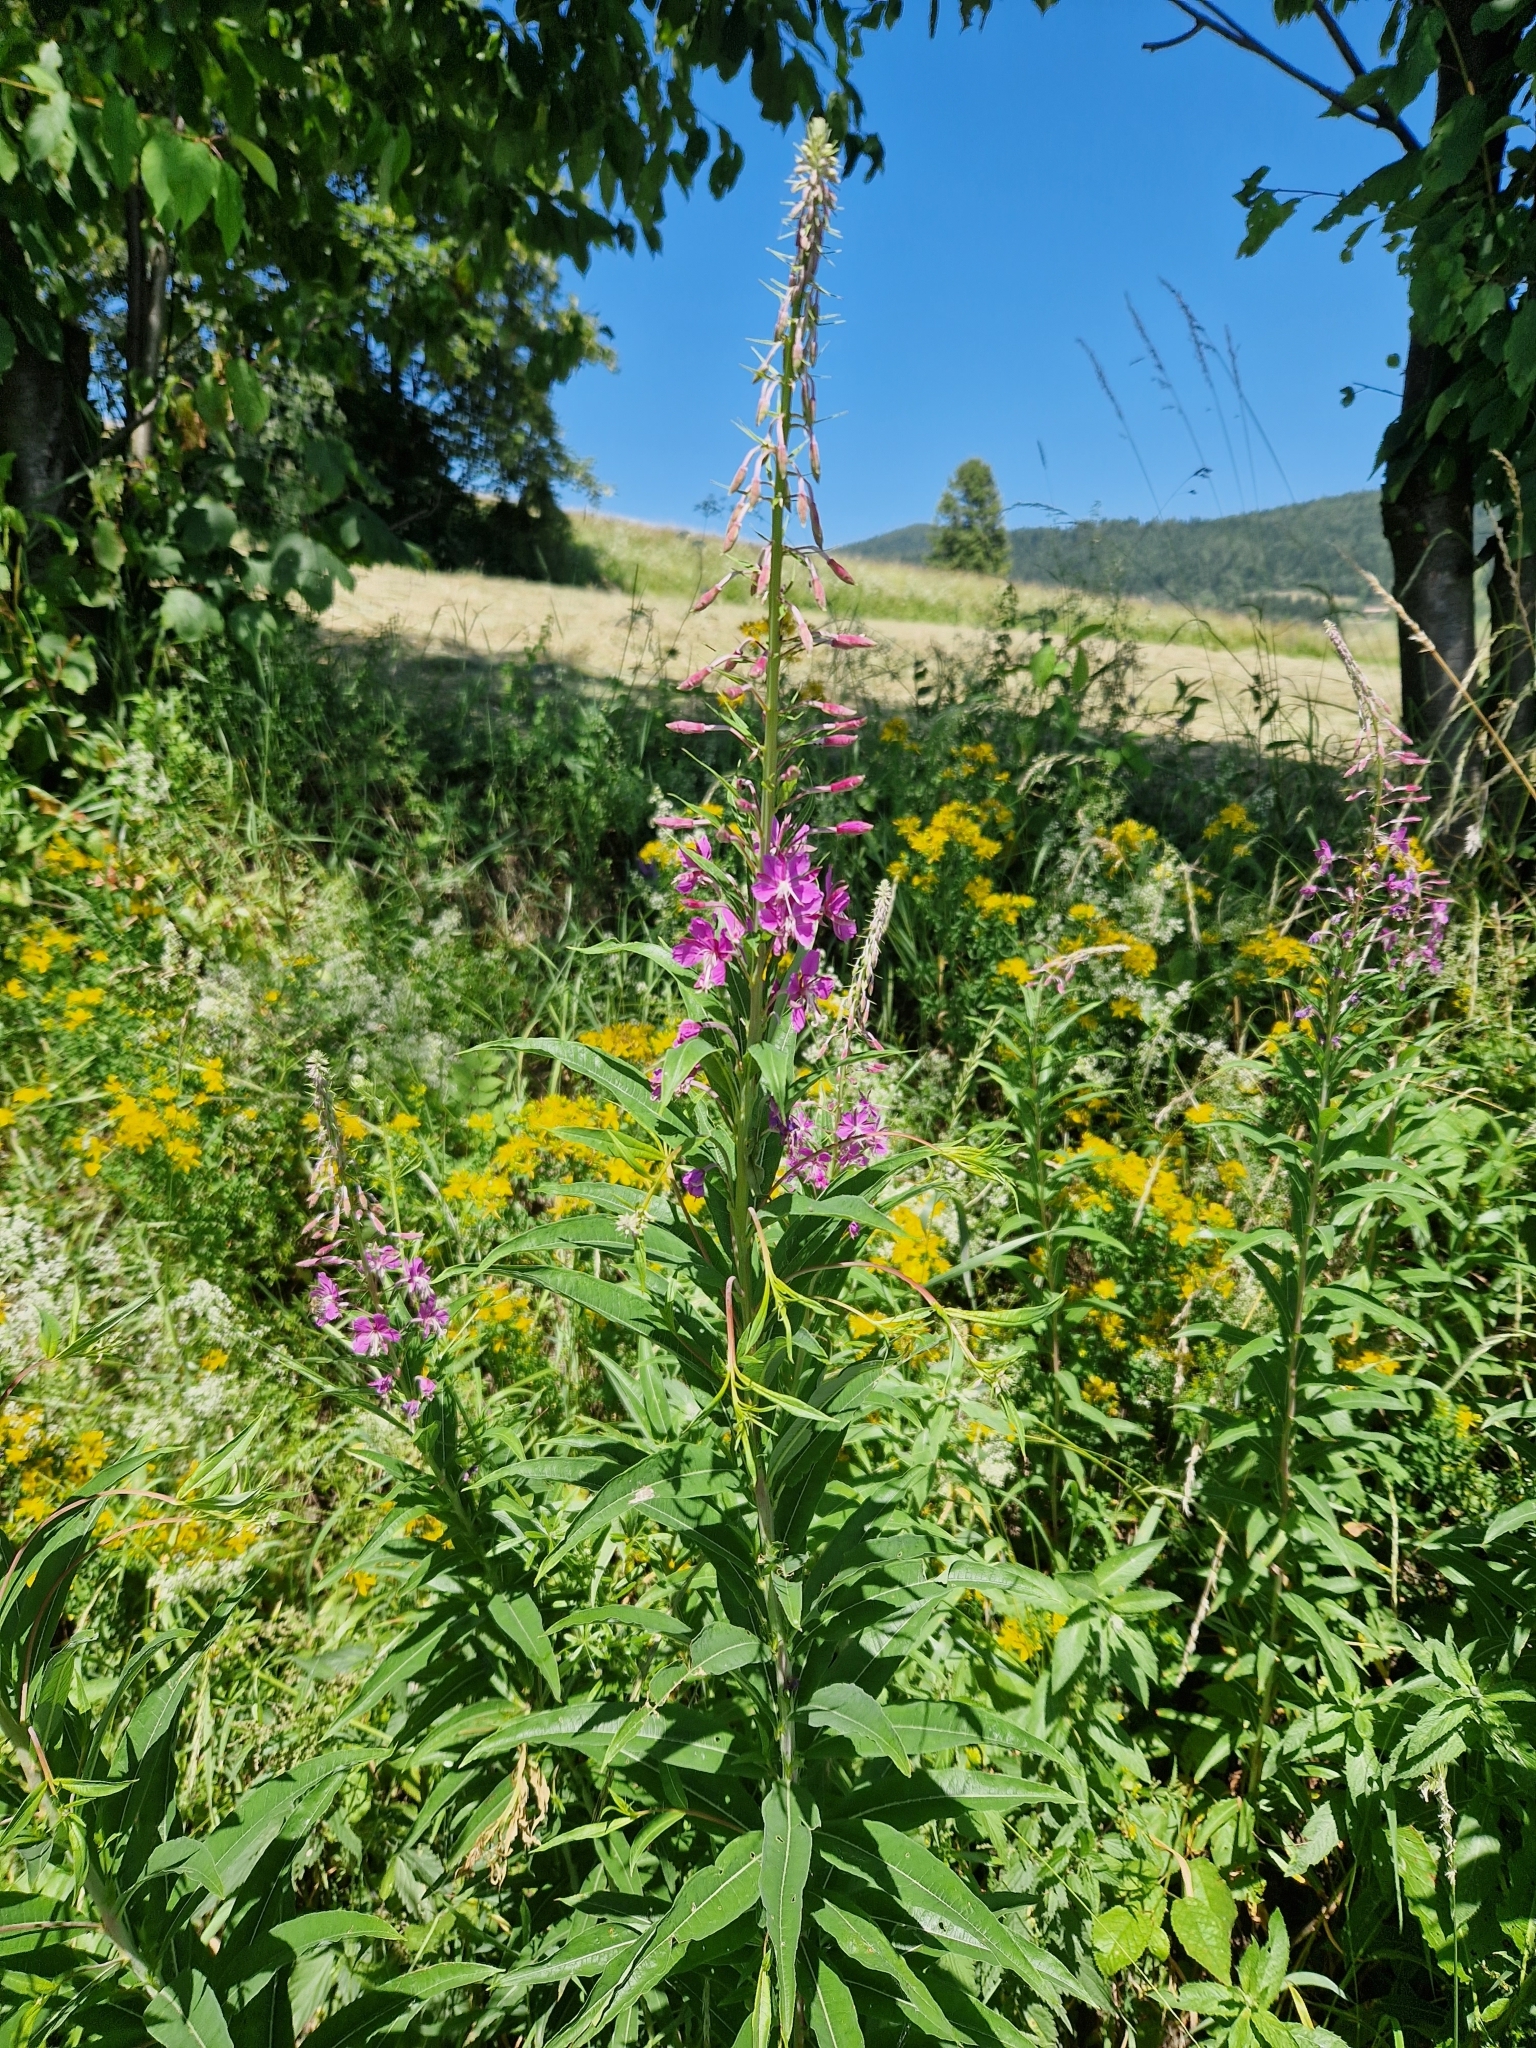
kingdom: Plantae
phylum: Tracheophyta
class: Magnoliopsida
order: Myrtales
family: Onagraceae
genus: Chamaenerion
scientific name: Chamaenerion angustifolium
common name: Fireweed
